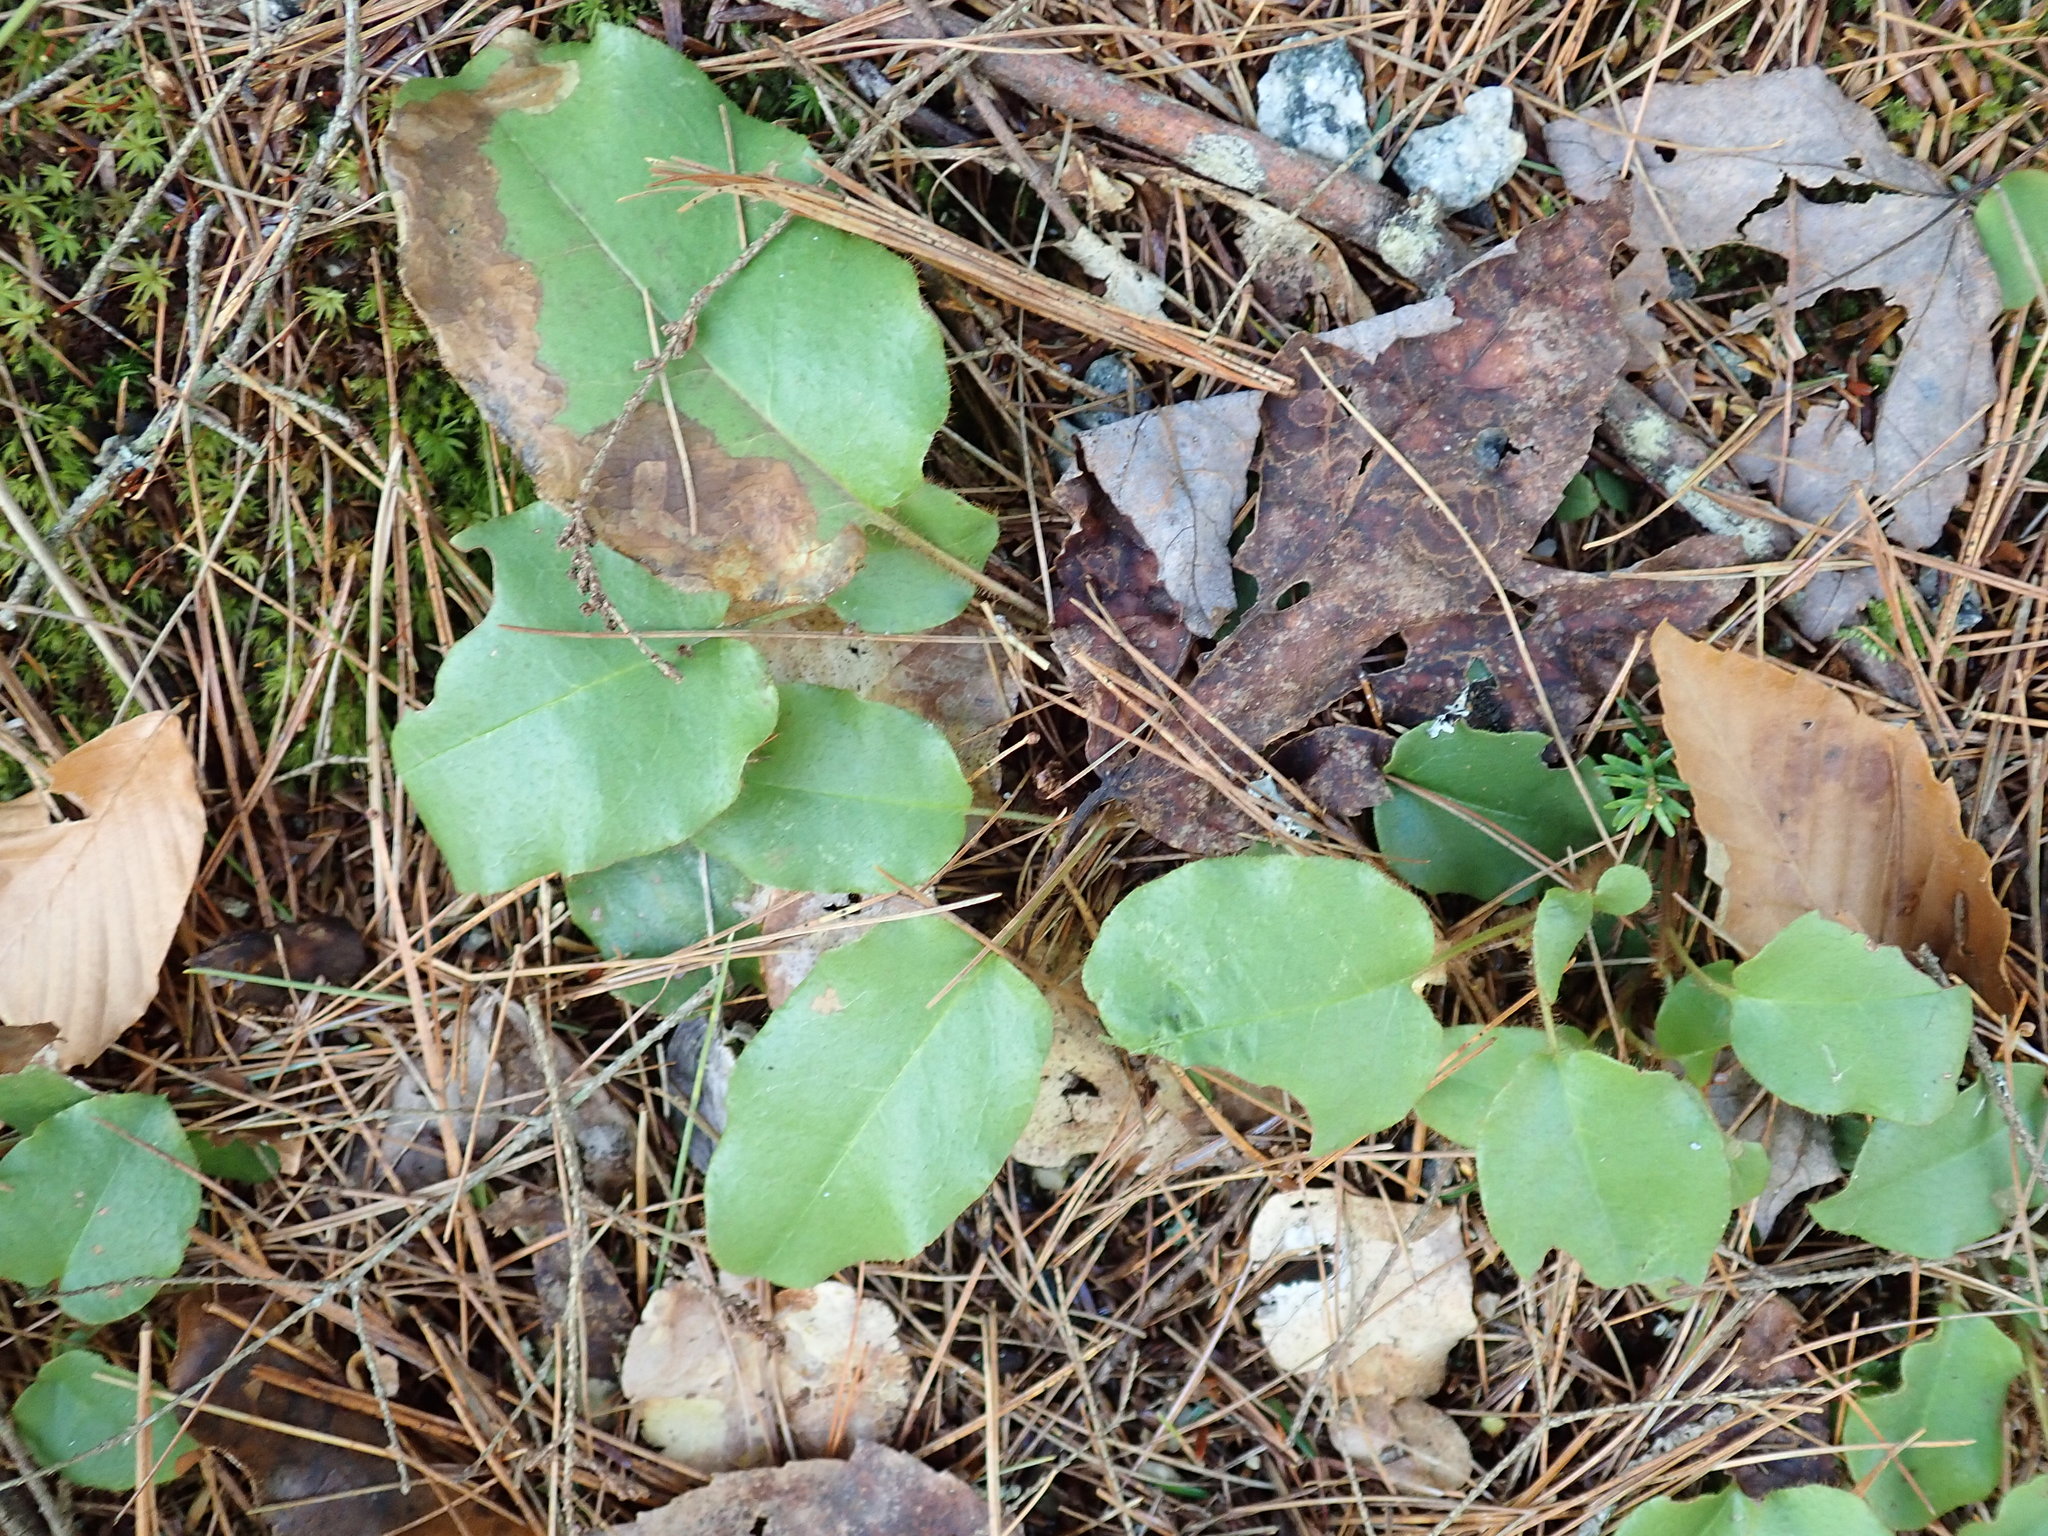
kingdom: Plantae
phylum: Tracheophyta
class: Magnoliopsida
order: Ericales
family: Ericaceae
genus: Epigaea
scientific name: Epigaea repens
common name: Gravelroot
